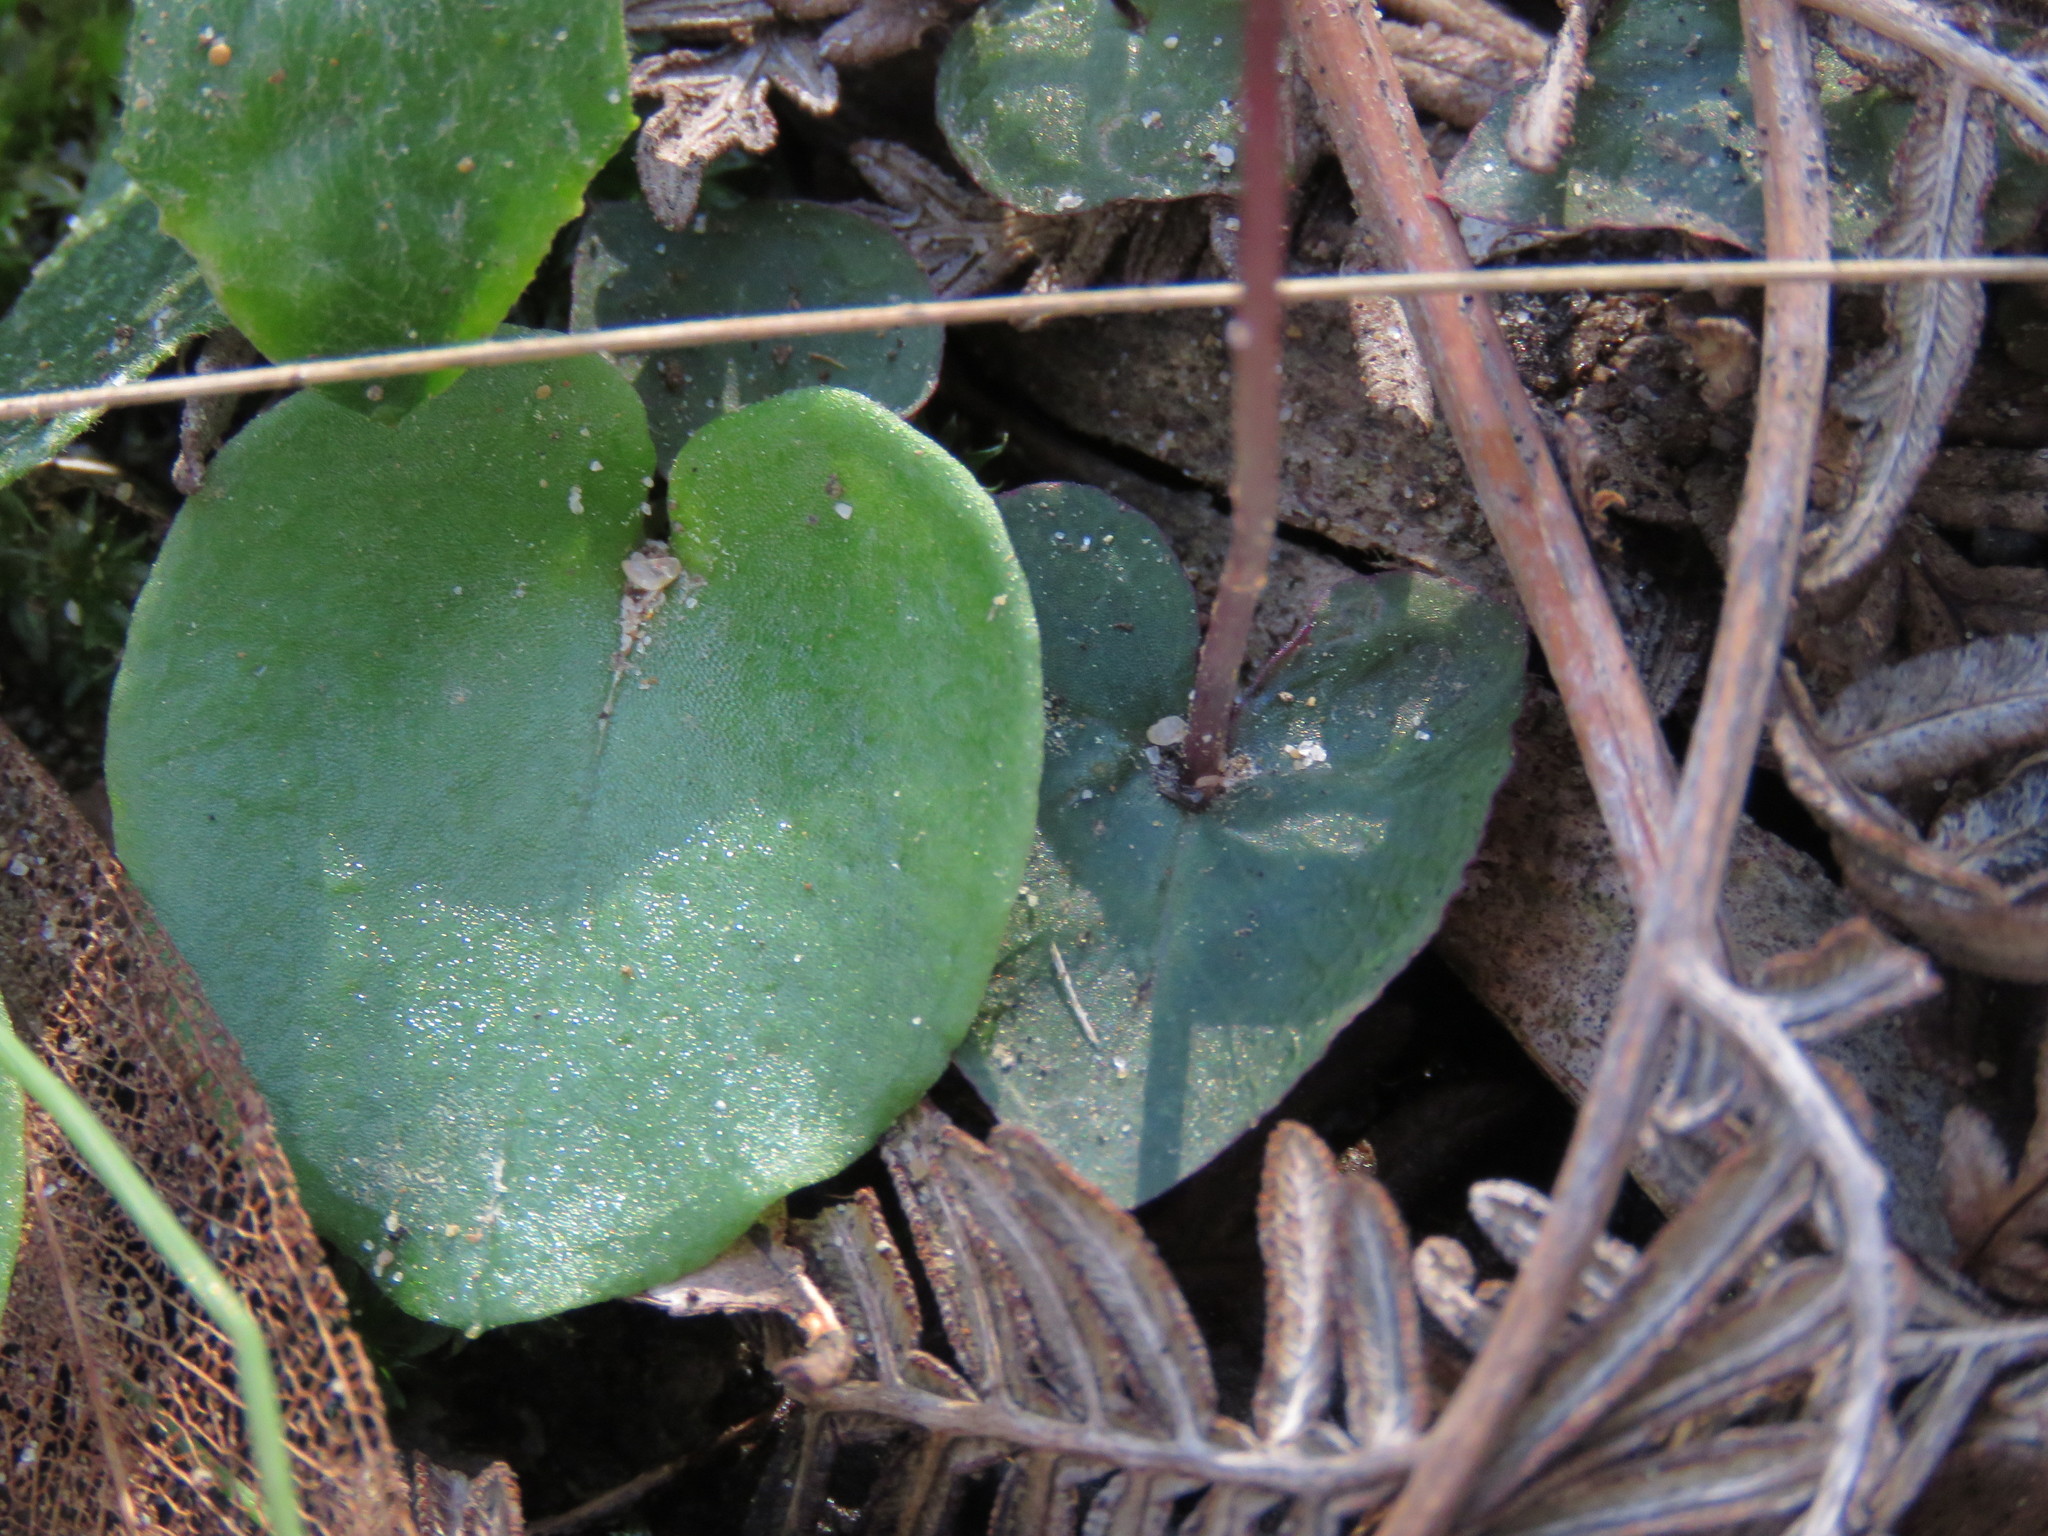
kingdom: Plantae
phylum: Tracheophyta
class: Liliopsida
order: Asparagales
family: Orchidaceae
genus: Corybas
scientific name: Corybas incurvus
